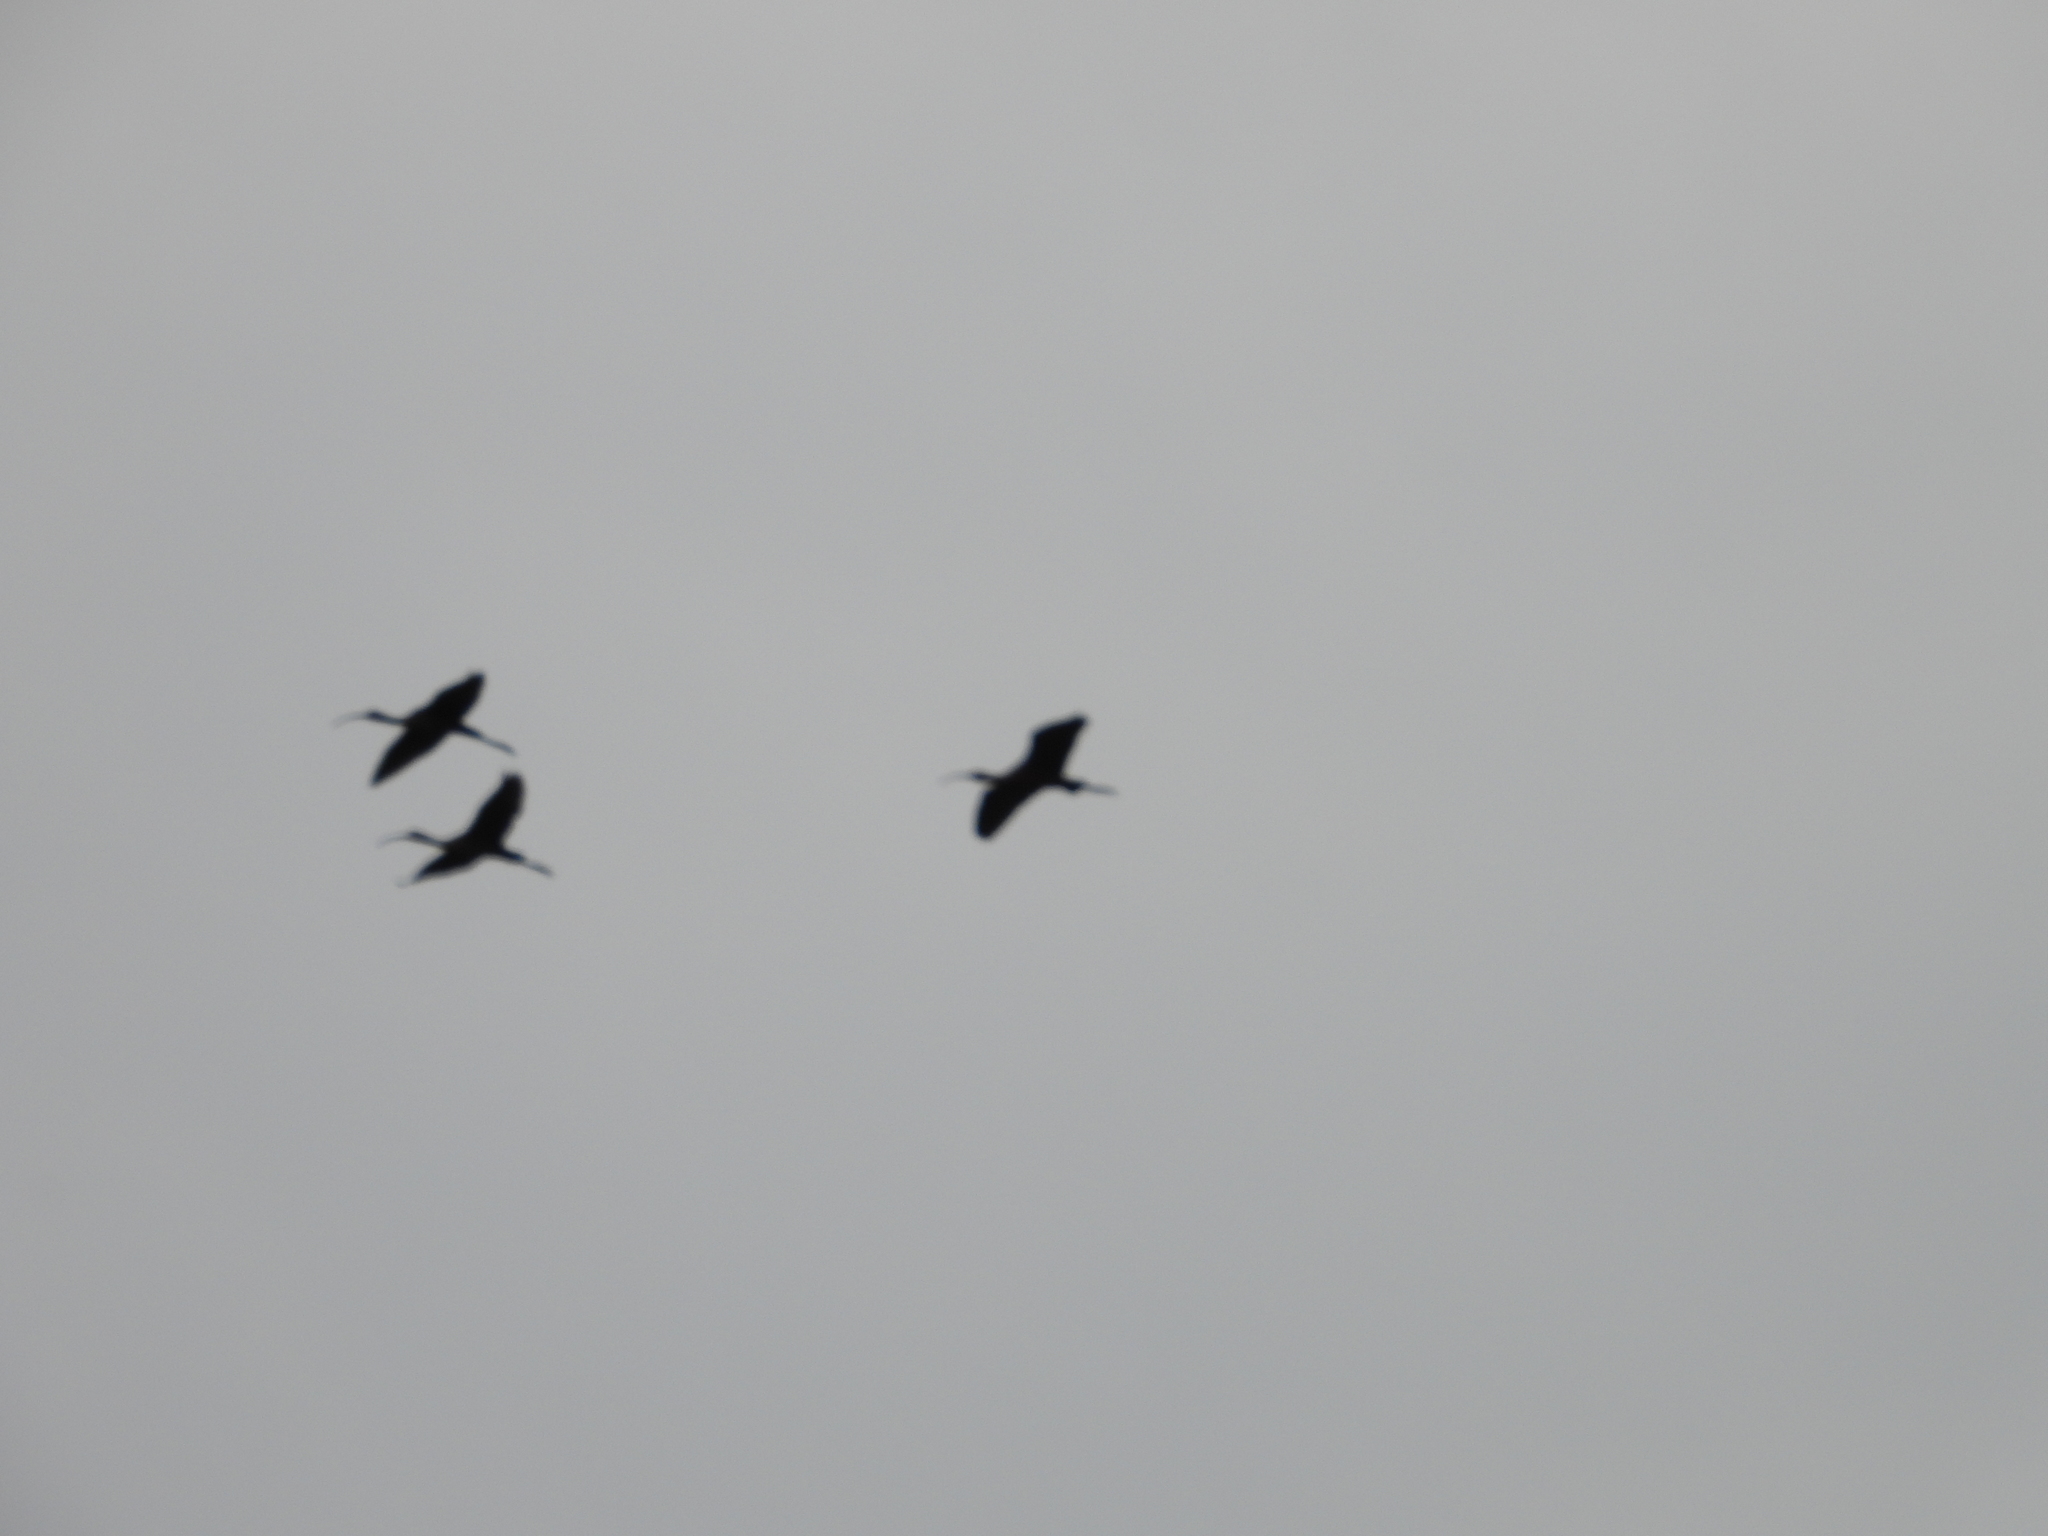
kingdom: Animalia
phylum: Chordata
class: Aves
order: Pelecaniformes
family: Threskiornithidae
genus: Plegadis
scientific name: Plegadis chihi
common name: White-faced ibis
